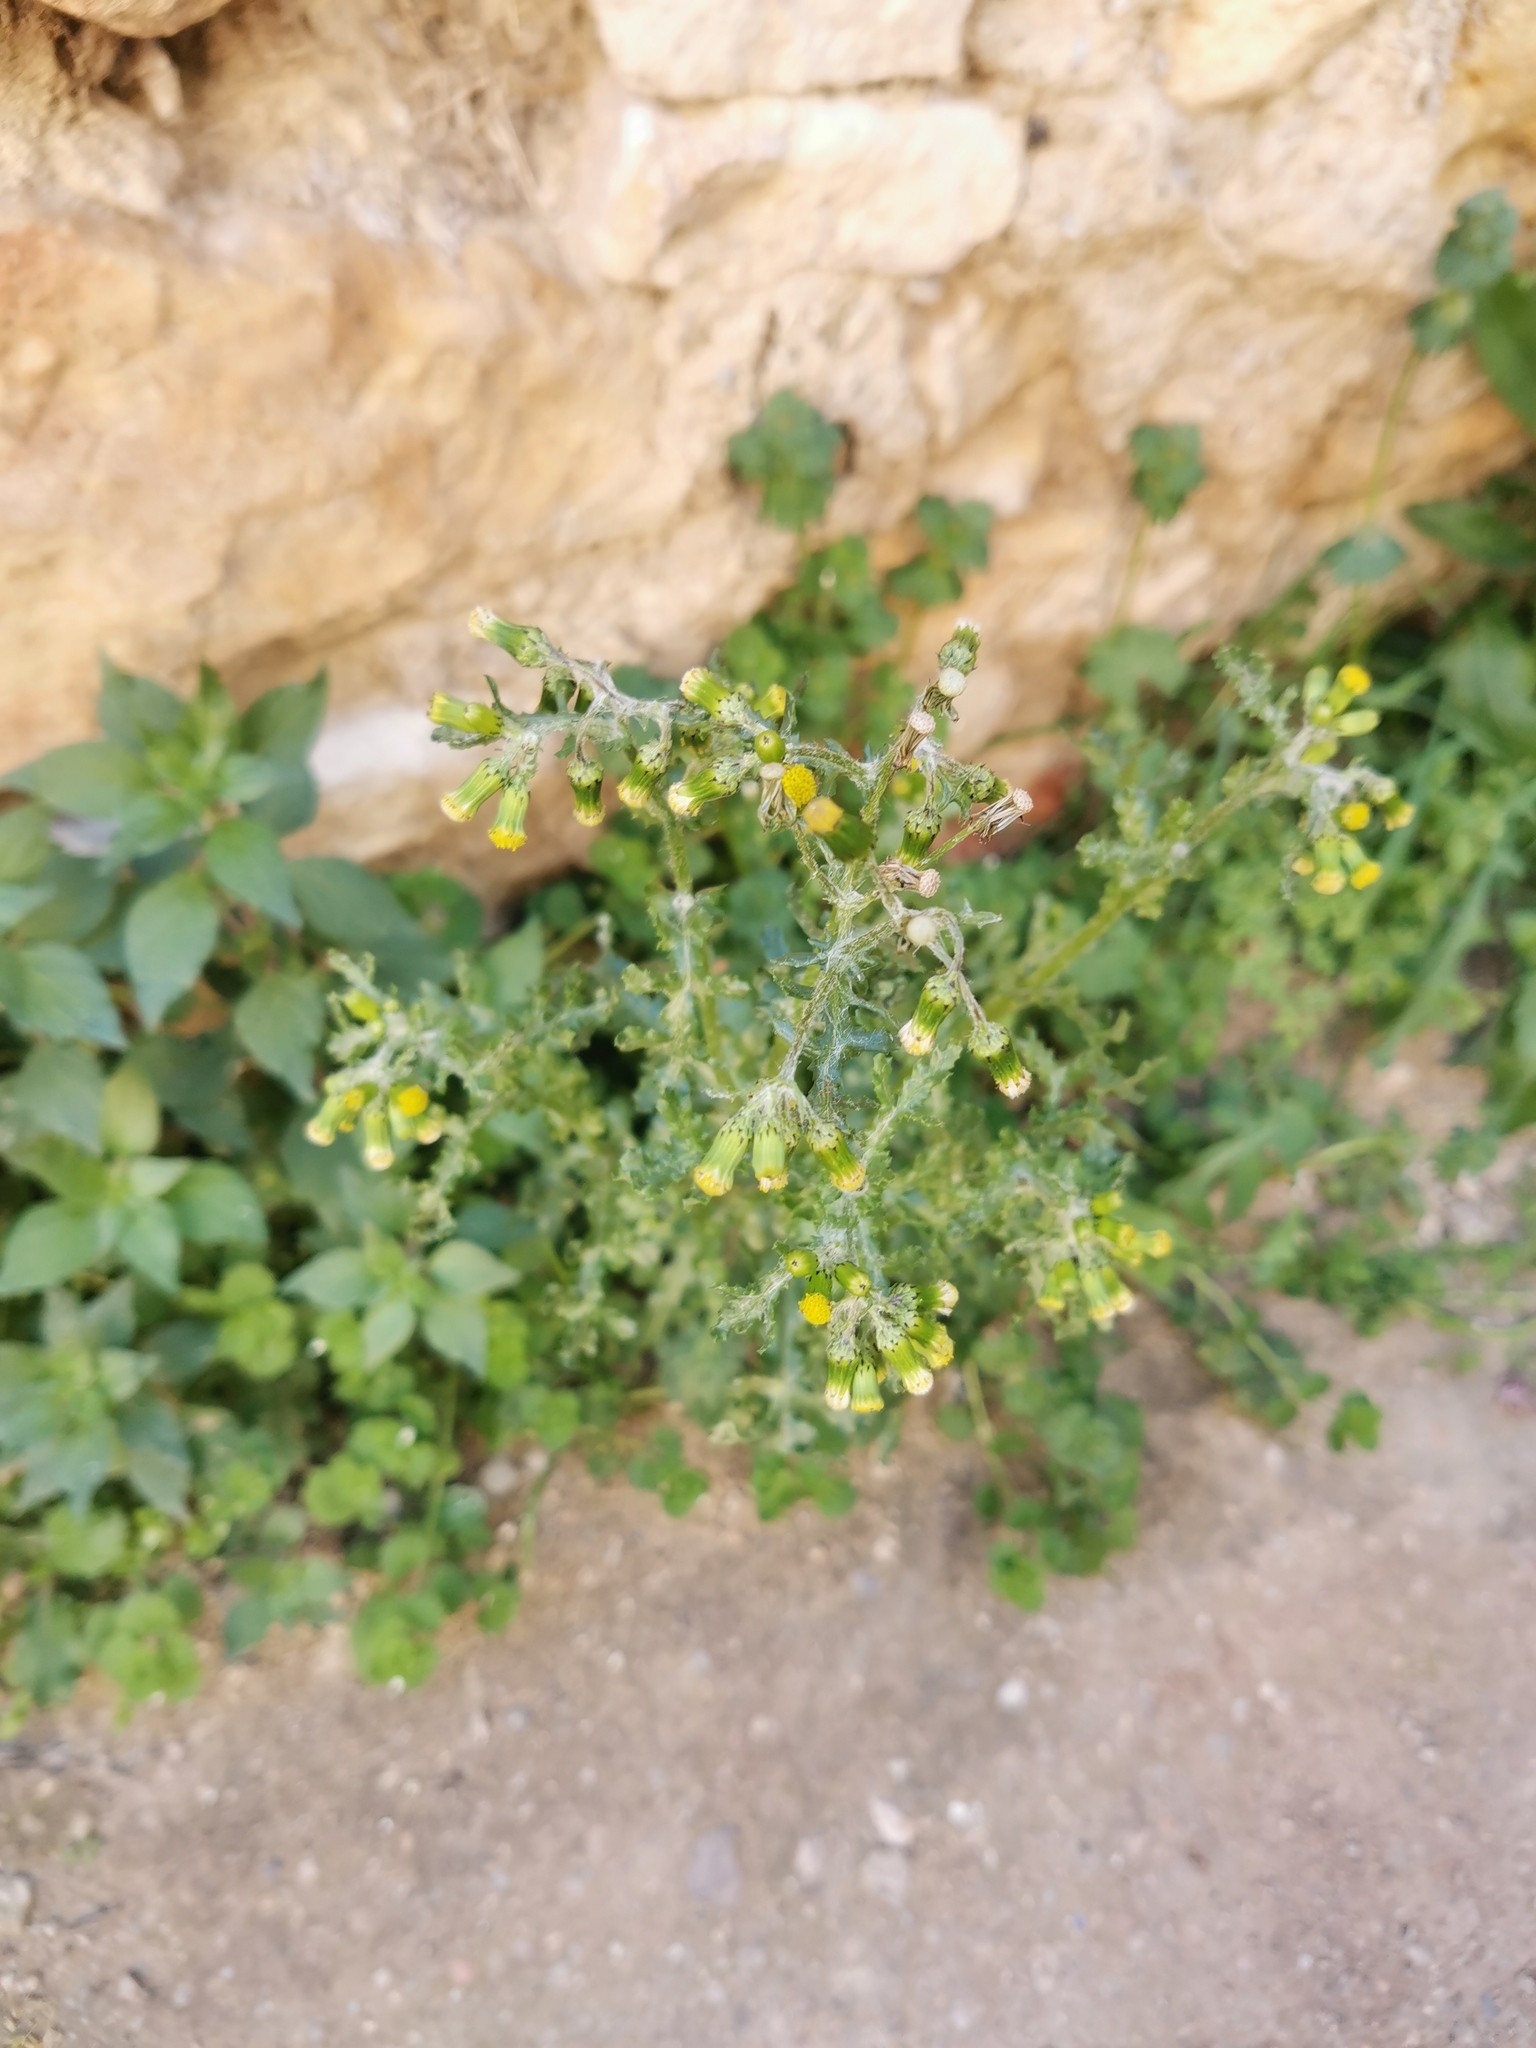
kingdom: Plantae
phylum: Tracheophyta
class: Magnoliopsida
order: Asterales
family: Asteraceae
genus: Senecio
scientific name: Senecio vulgaris
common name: Old-man-in-the-spring
